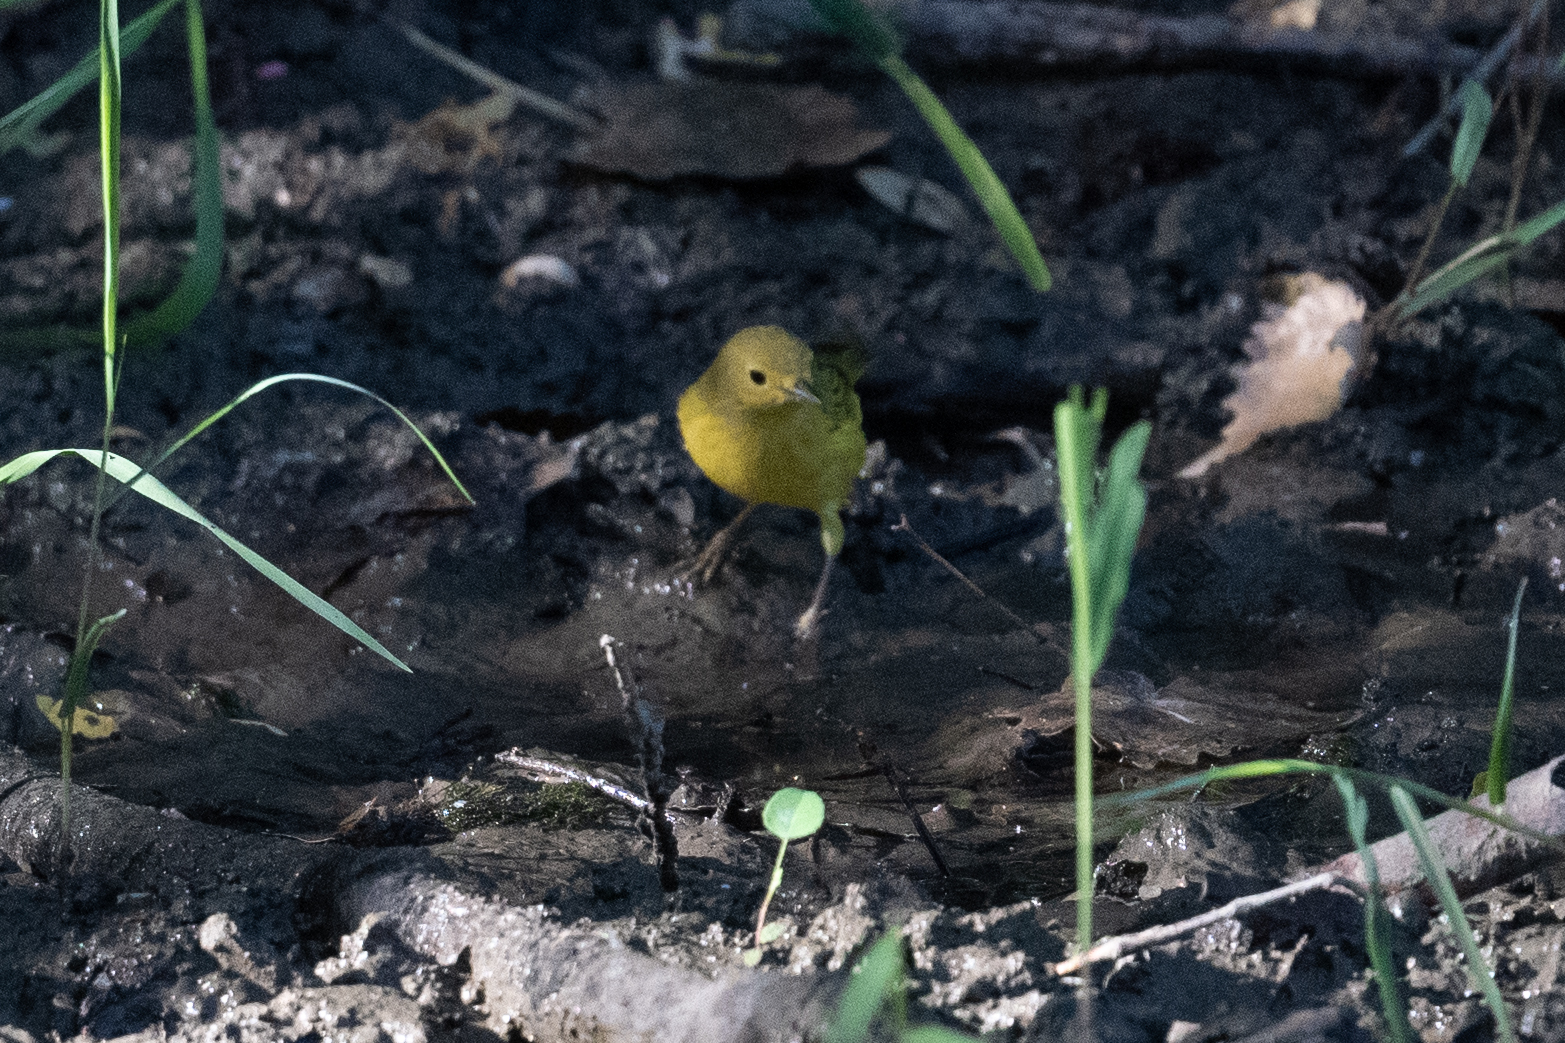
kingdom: Animalia
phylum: Chordata
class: Aves
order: Passeriformes
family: Parulidae
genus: Setophaga
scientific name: Setophaga petechia
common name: Yellow warbler
